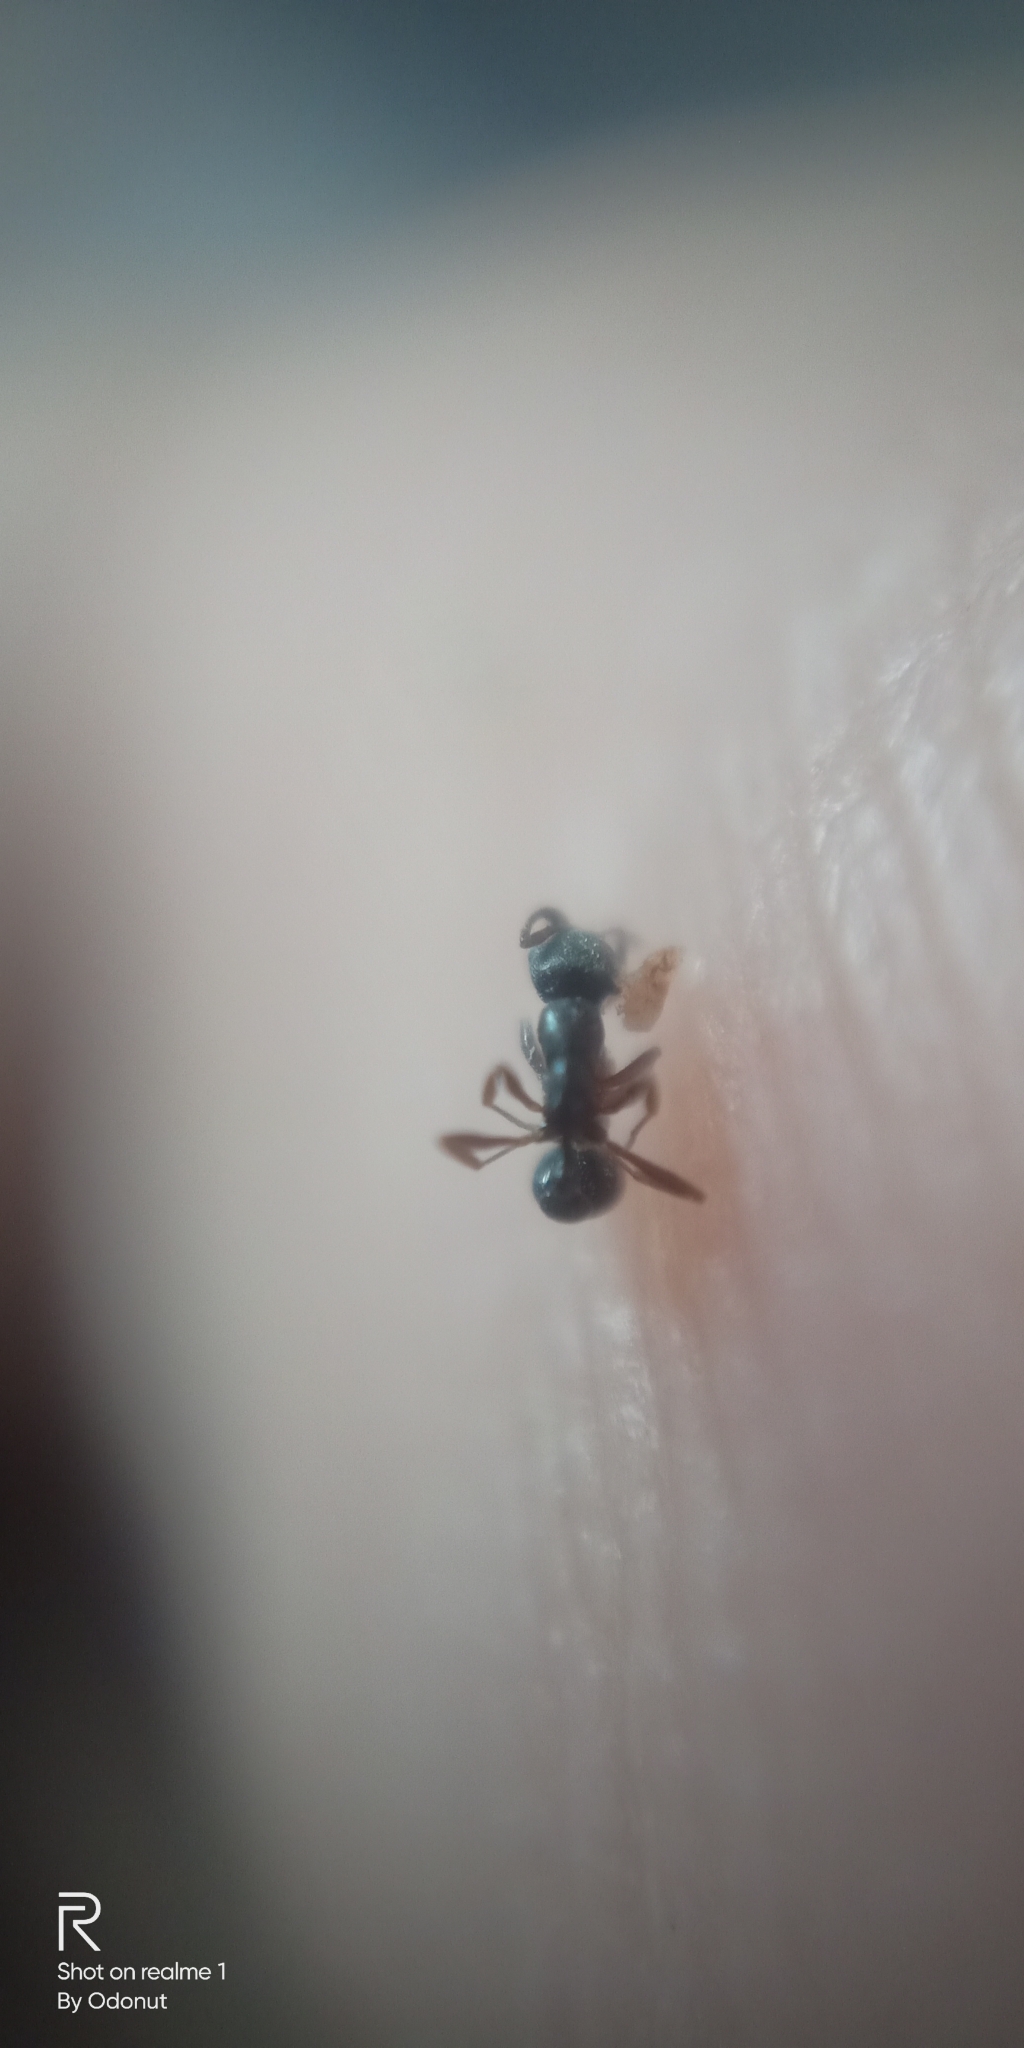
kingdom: Animalia
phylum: Arthropoda
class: Insecta
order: Hymenoptera
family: Formicidae
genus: Cardiocondyla
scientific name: Cardiocondyla minutior
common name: Ant
